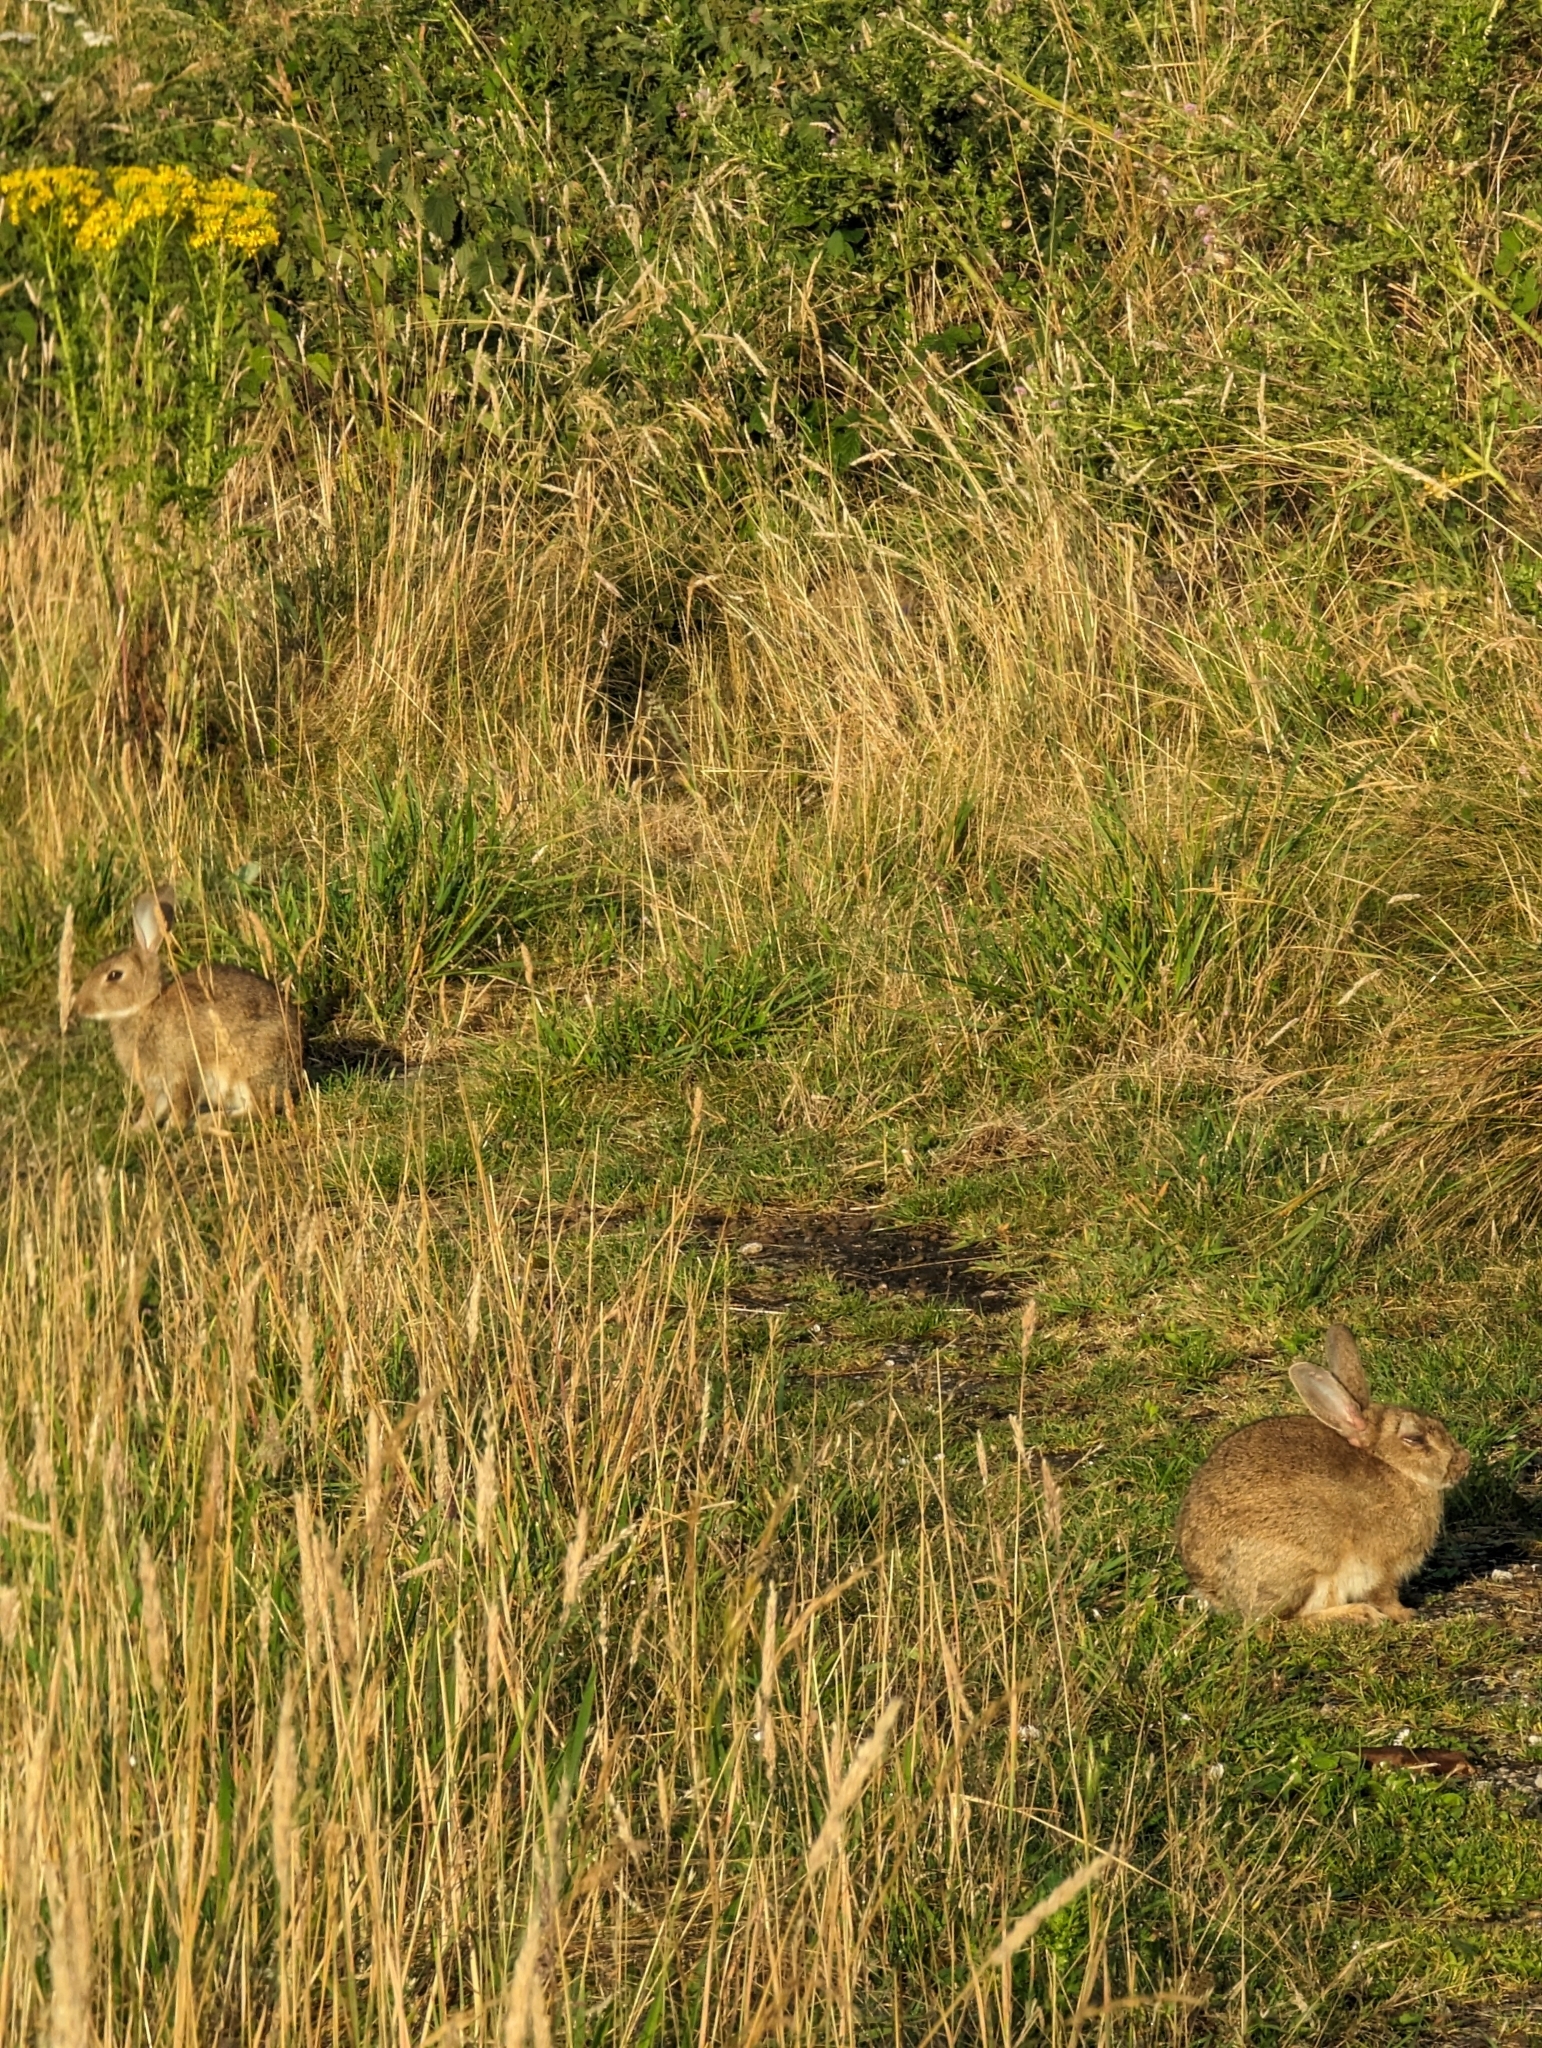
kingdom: Animalia
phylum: Chordata
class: Mammalia
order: Lagomorpha
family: Leporidae
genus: Oryctolagus
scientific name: Oryctolagus cuniculus
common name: European rabbit
